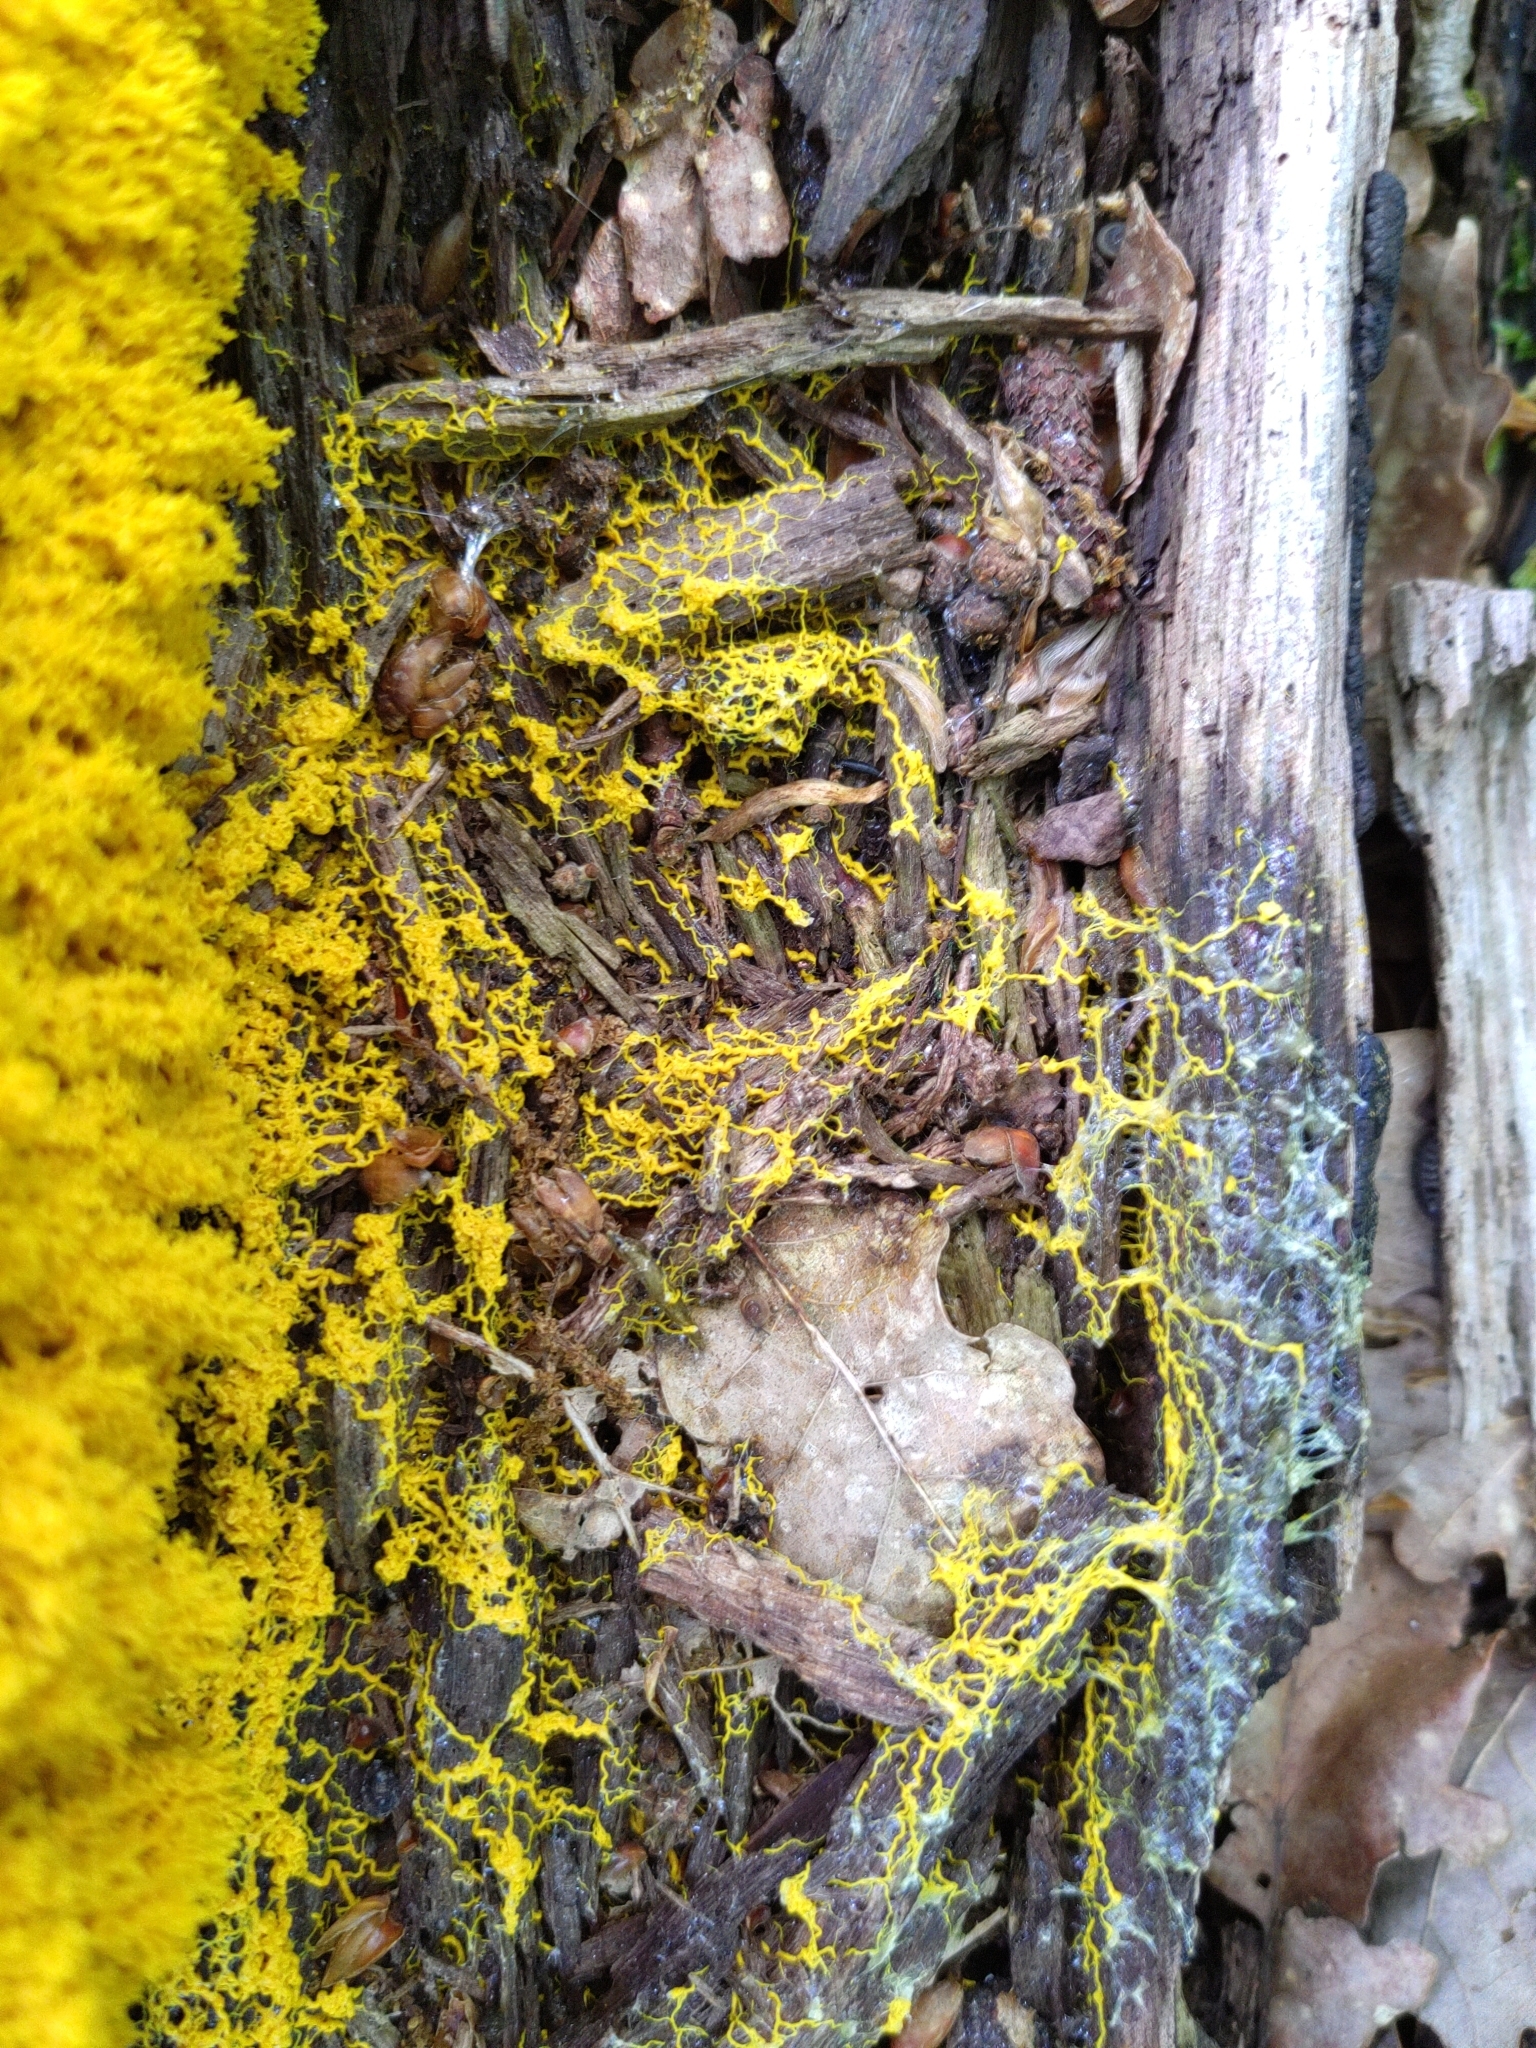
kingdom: Protozoa
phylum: Mycetozoa
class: Myxomycetes
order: Physarales
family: Physaraceae
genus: Fuligo
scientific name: Fuligo septica
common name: Dog vomit slime mold
